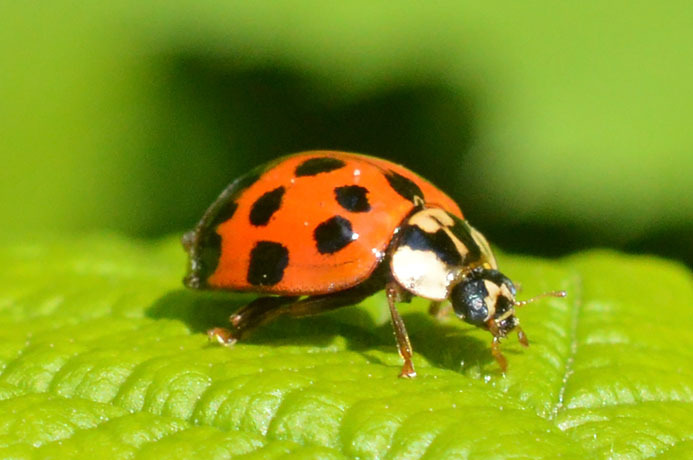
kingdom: Animalia
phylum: Arthropoda
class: Insecta
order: Coleoptera
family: Coccinellidae
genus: Harmonia
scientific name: Harmonia axyridis
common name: Harlequin ladybird
